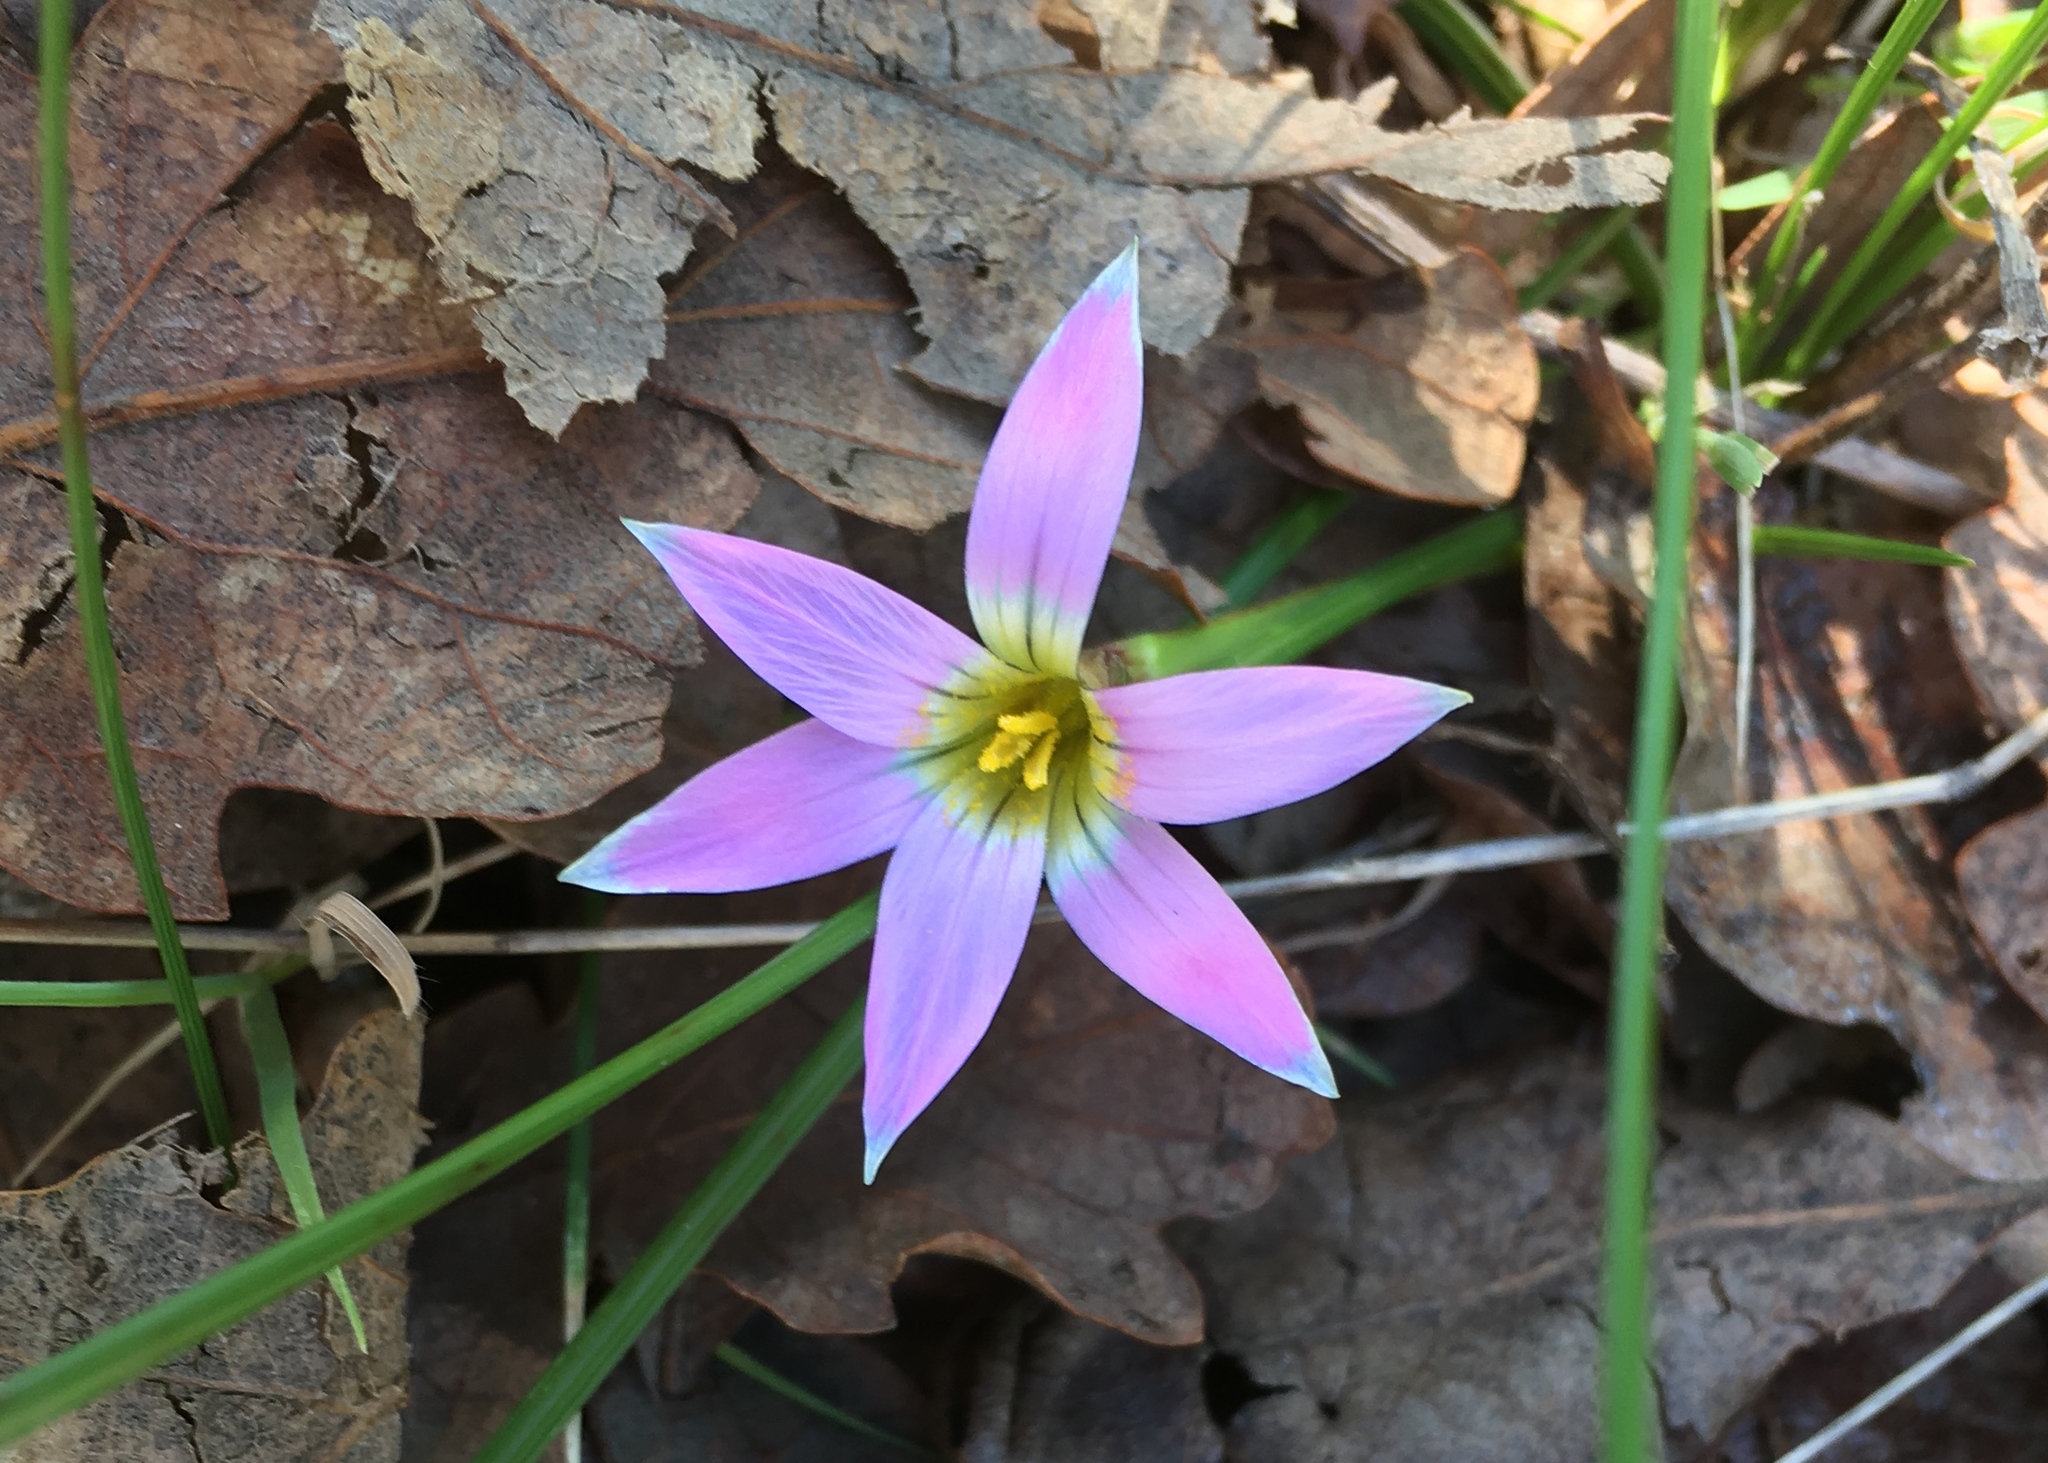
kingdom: Plantae
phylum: Tracheophyta
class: Liliopsida
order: Asparagales
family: Iridaceae
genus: Romulea
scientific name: Romulea rosea
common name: Oniongrass
